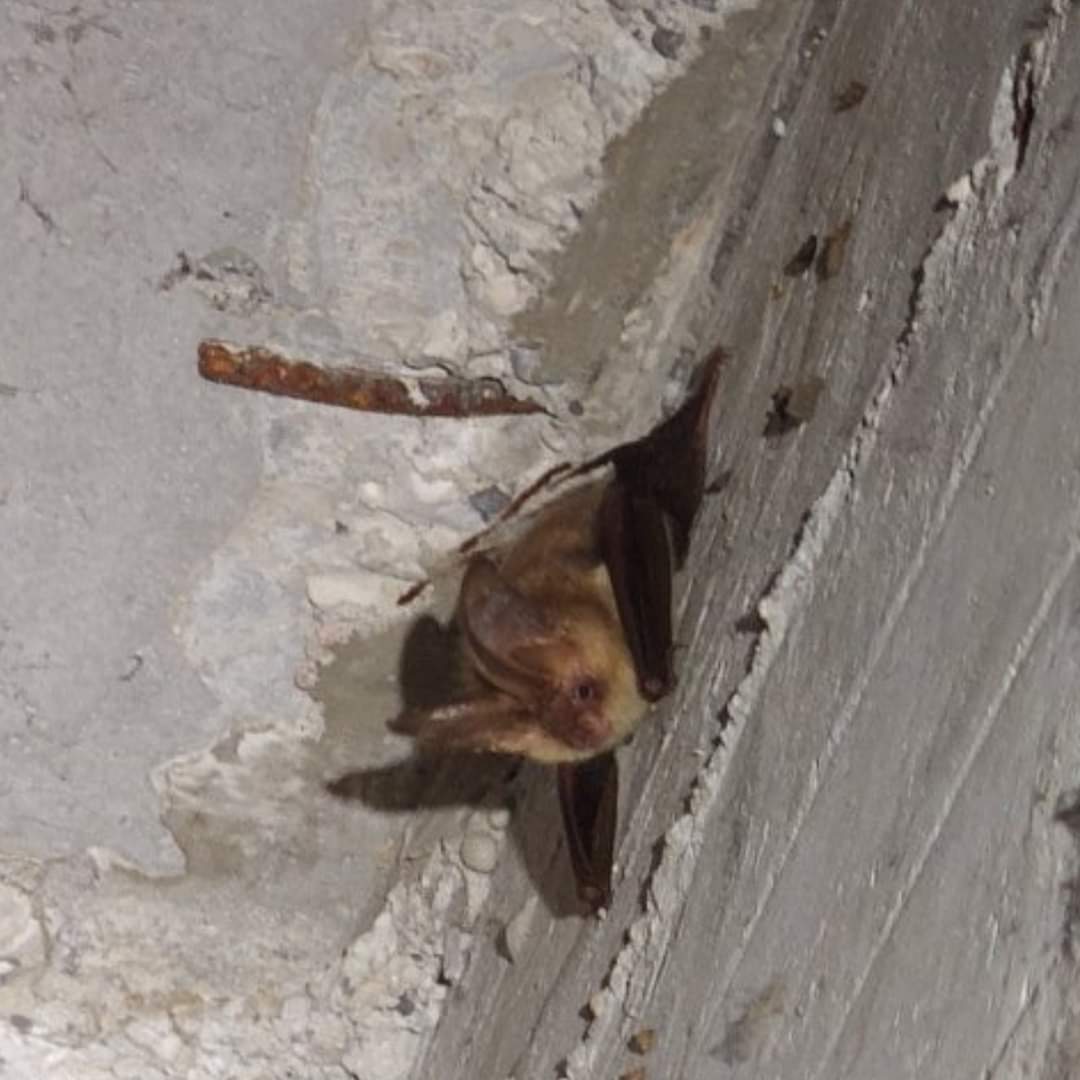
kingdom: Animalia
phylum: Chordata
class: Mammalia
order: Chiroptera
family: Vespertilionidae
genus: Plecotus
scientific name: Plecotus auritus
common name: Brown long-eared bat
